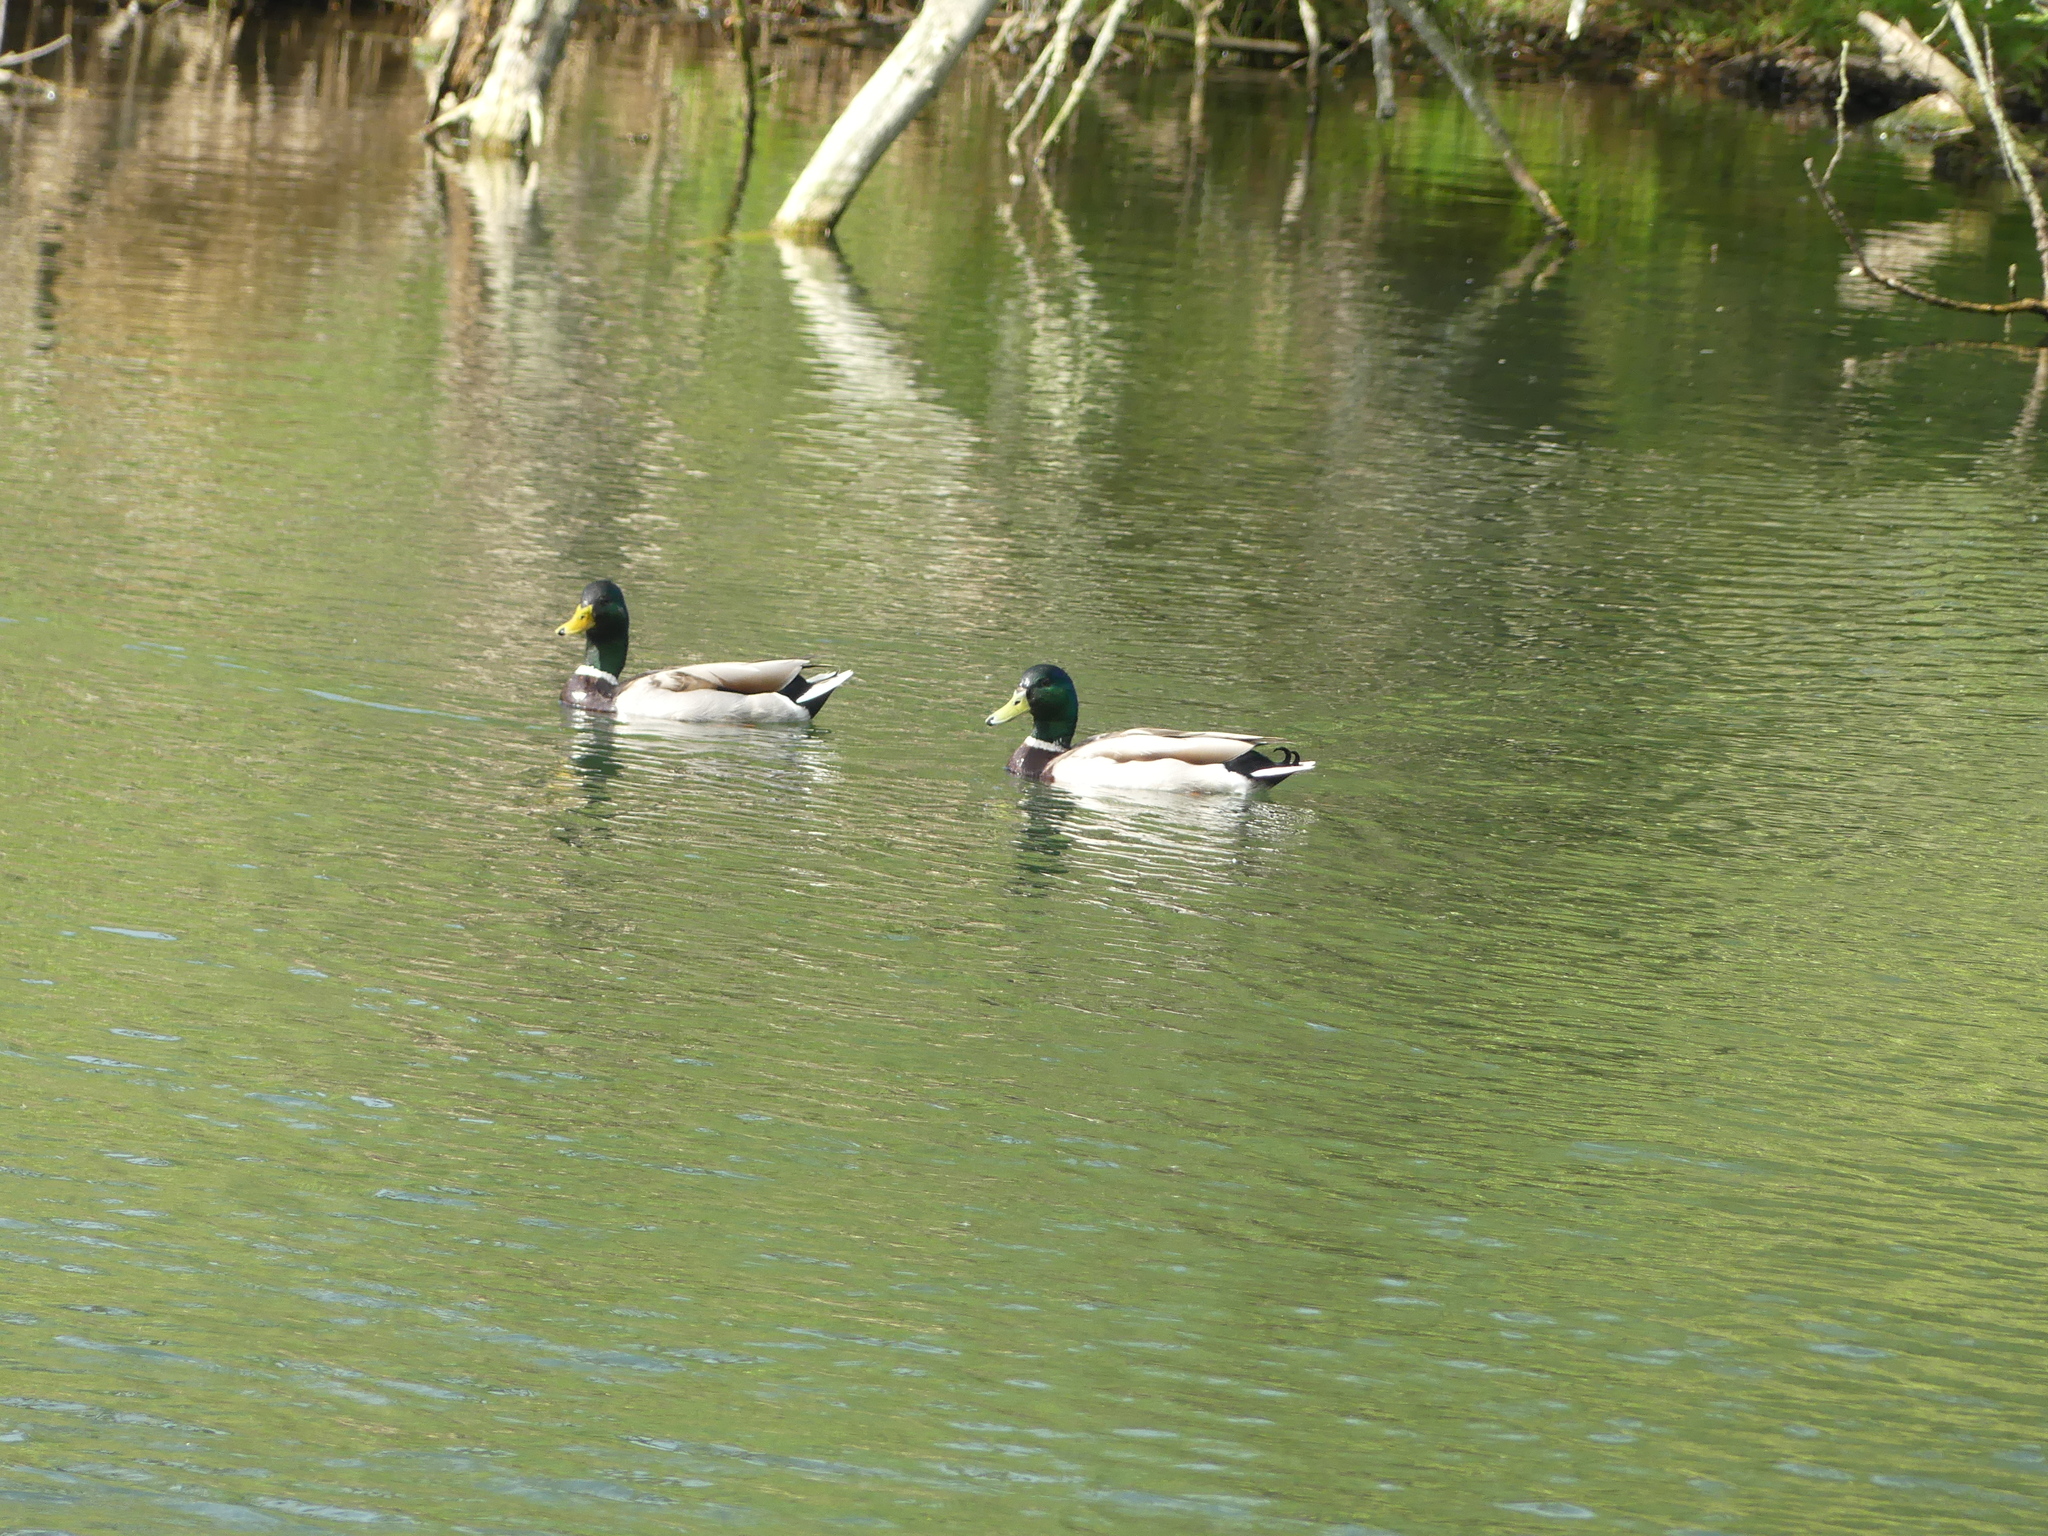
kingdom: Animalia
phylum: Chordata
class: Aves
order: Anseriformes
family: Anatidae
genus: Anas
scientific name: Anas platyrhynchos
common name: Mallard
